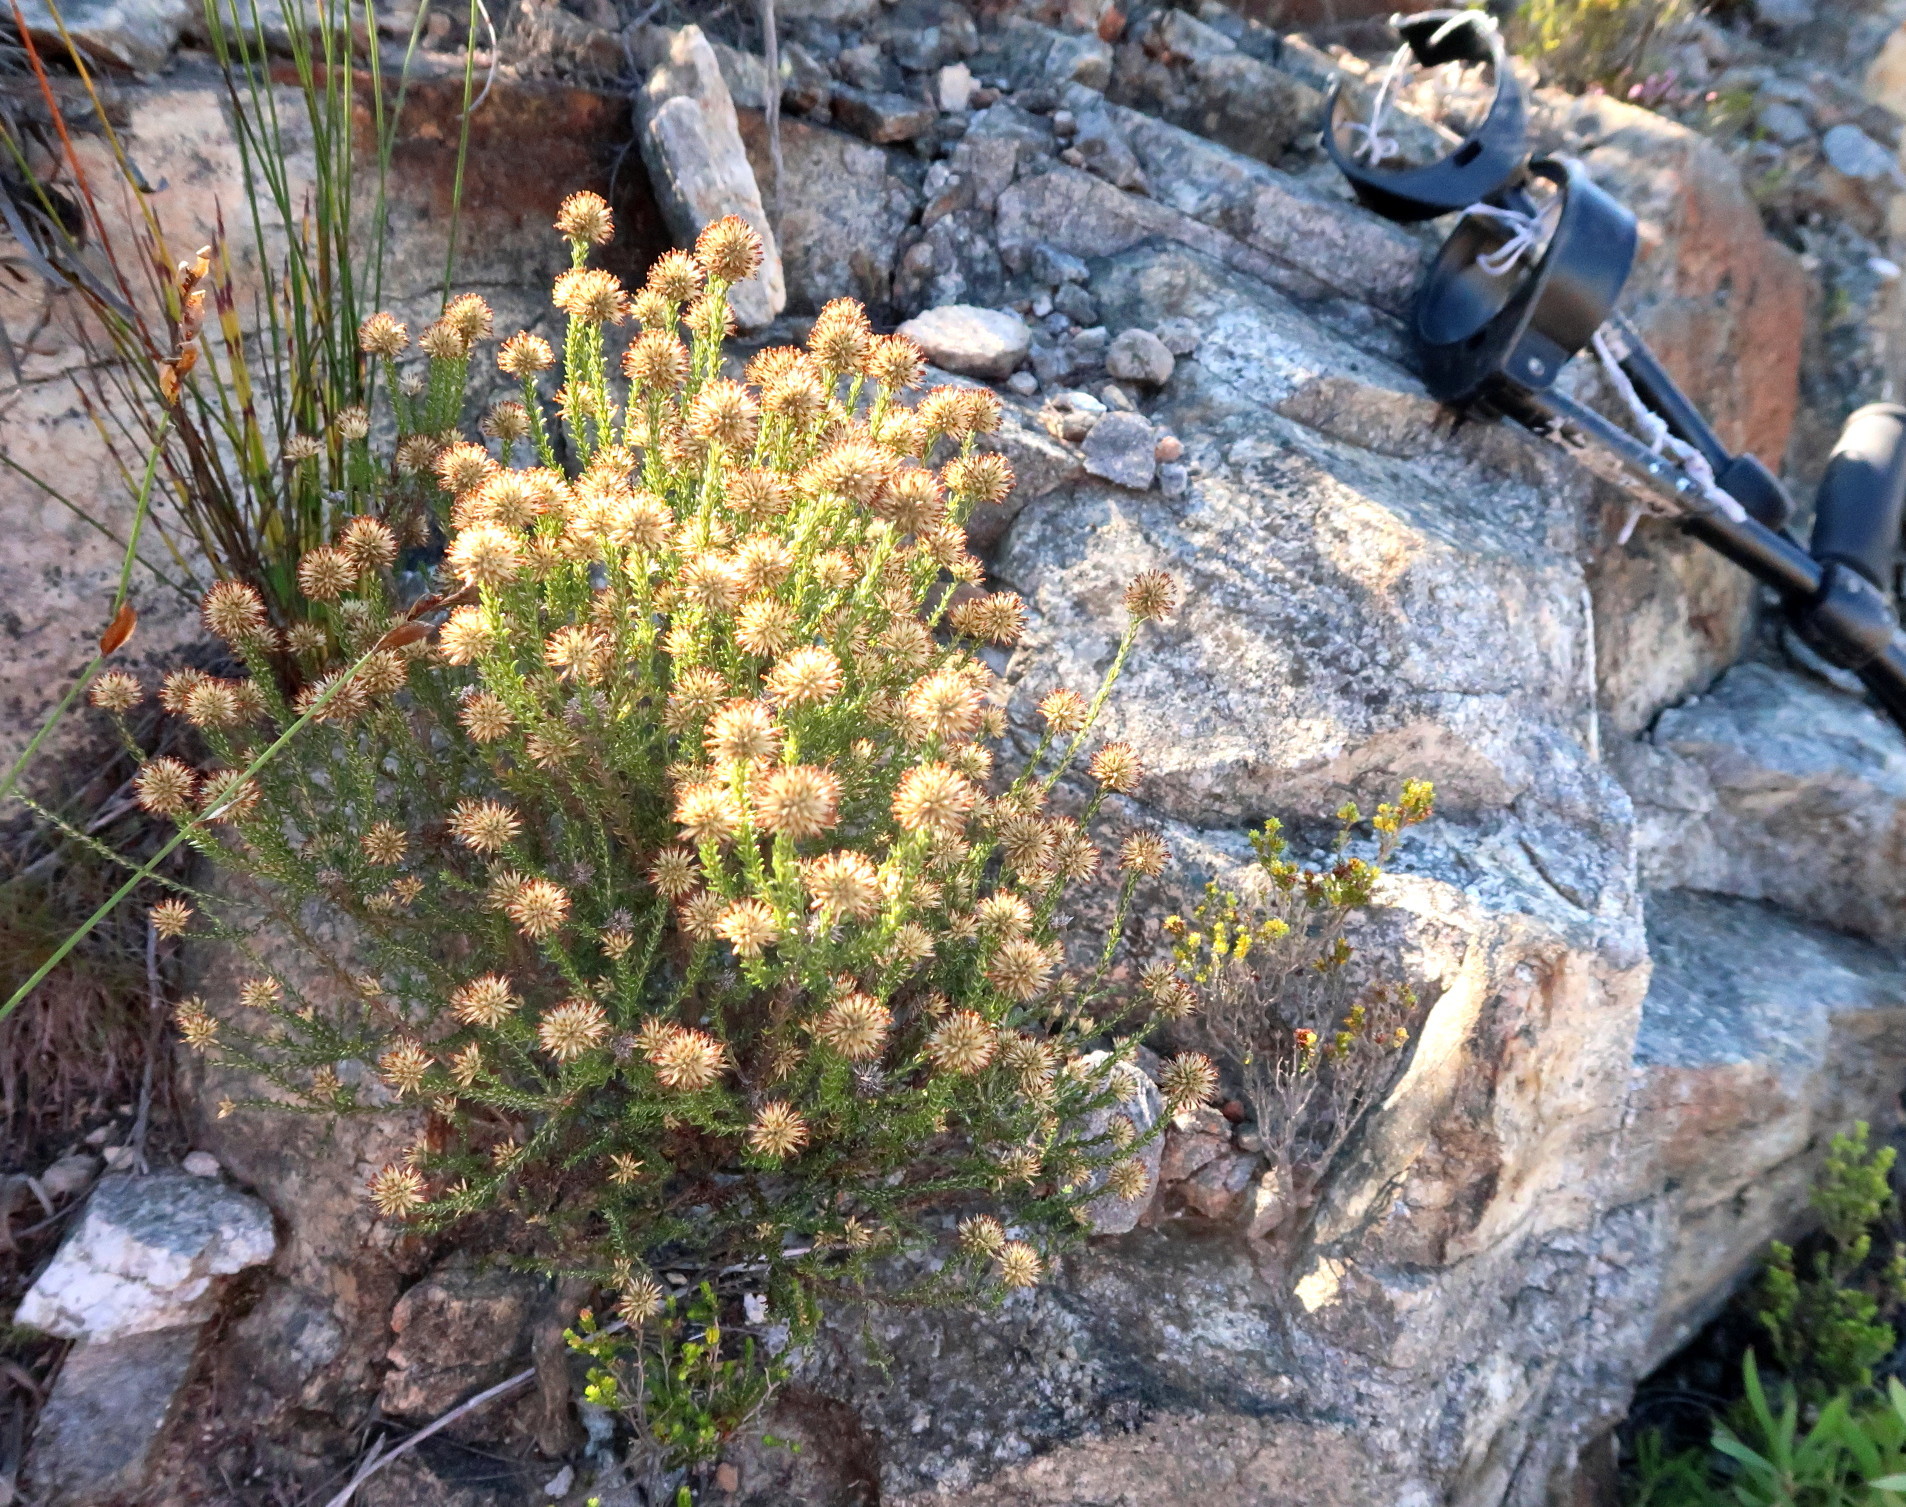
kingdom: Plantae
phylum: Tracheophyta
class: Magnoliopsida
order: Asterales
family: Asteraceae
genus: Seriphium
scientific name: Seriphium spirale
